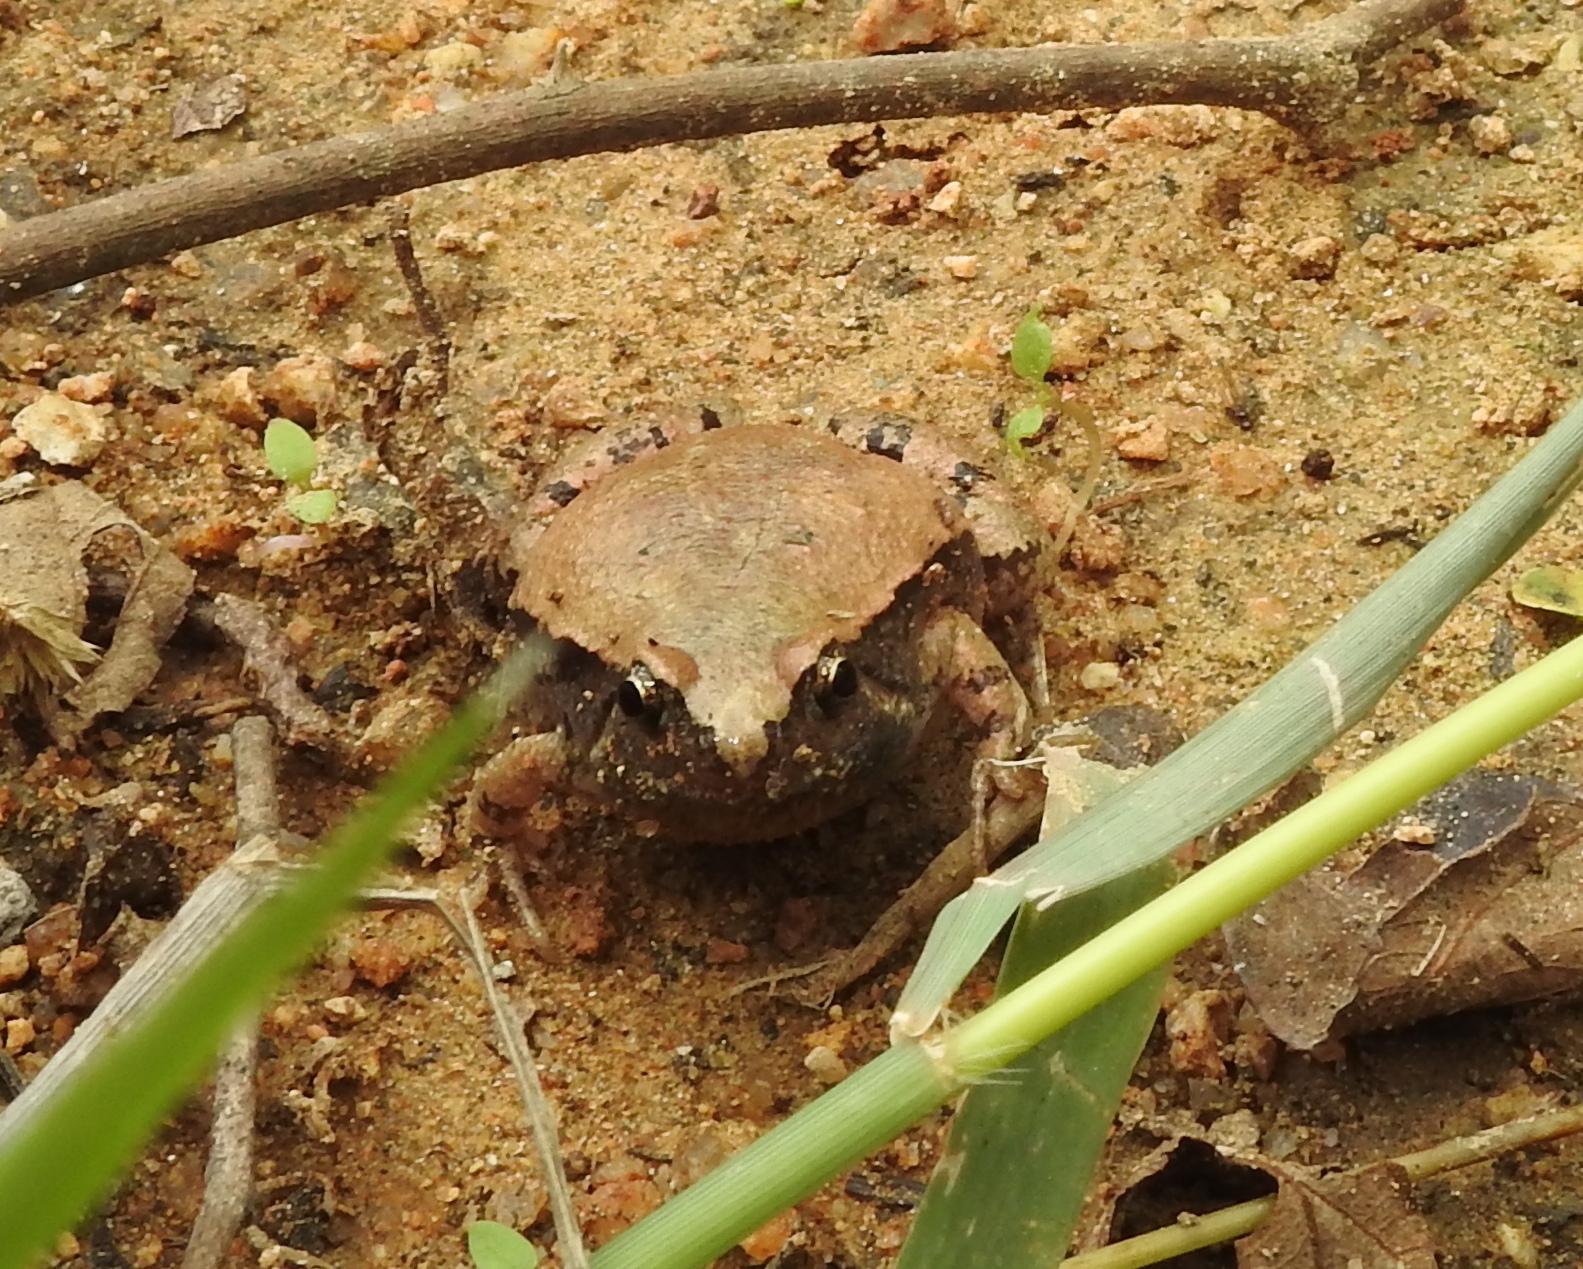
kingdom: Animalia
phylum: Chordata
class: Amphibia
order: Anura
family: Microhylidae
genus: Microhyla
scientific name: Microhyla rubra
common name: Guangdong rice frog
